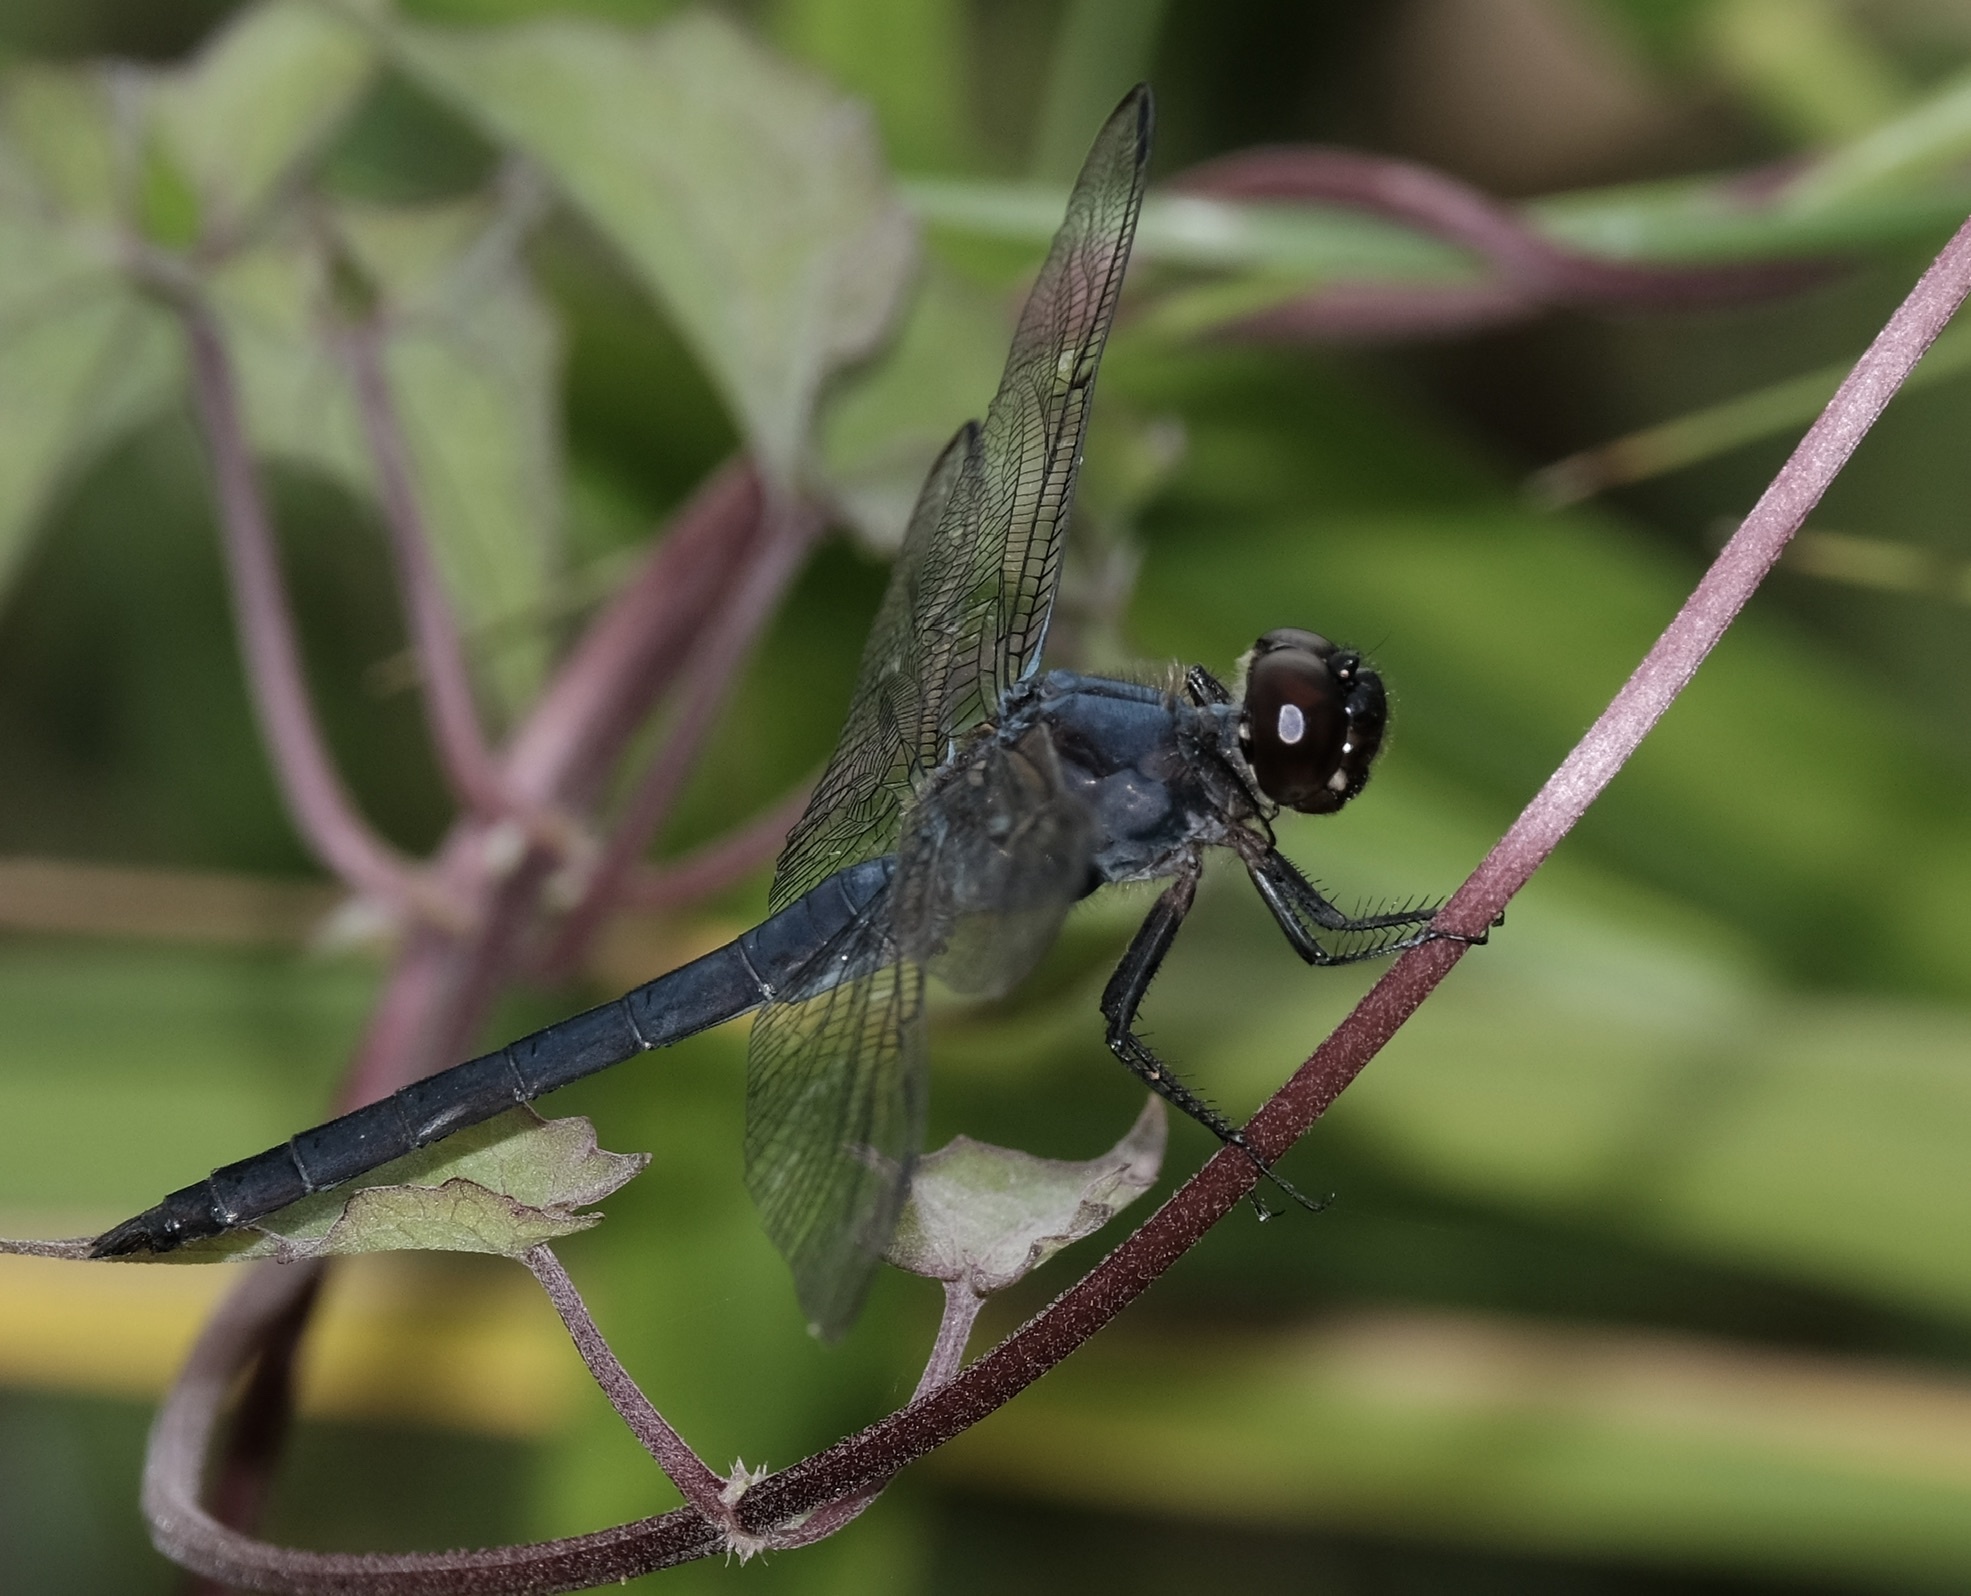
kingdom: Animalia
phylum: Arthropoda
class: Insecta
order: Odonata
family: Libellulidae
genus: Libellula
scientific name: Libellula incesta
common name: Slaty skimmer
